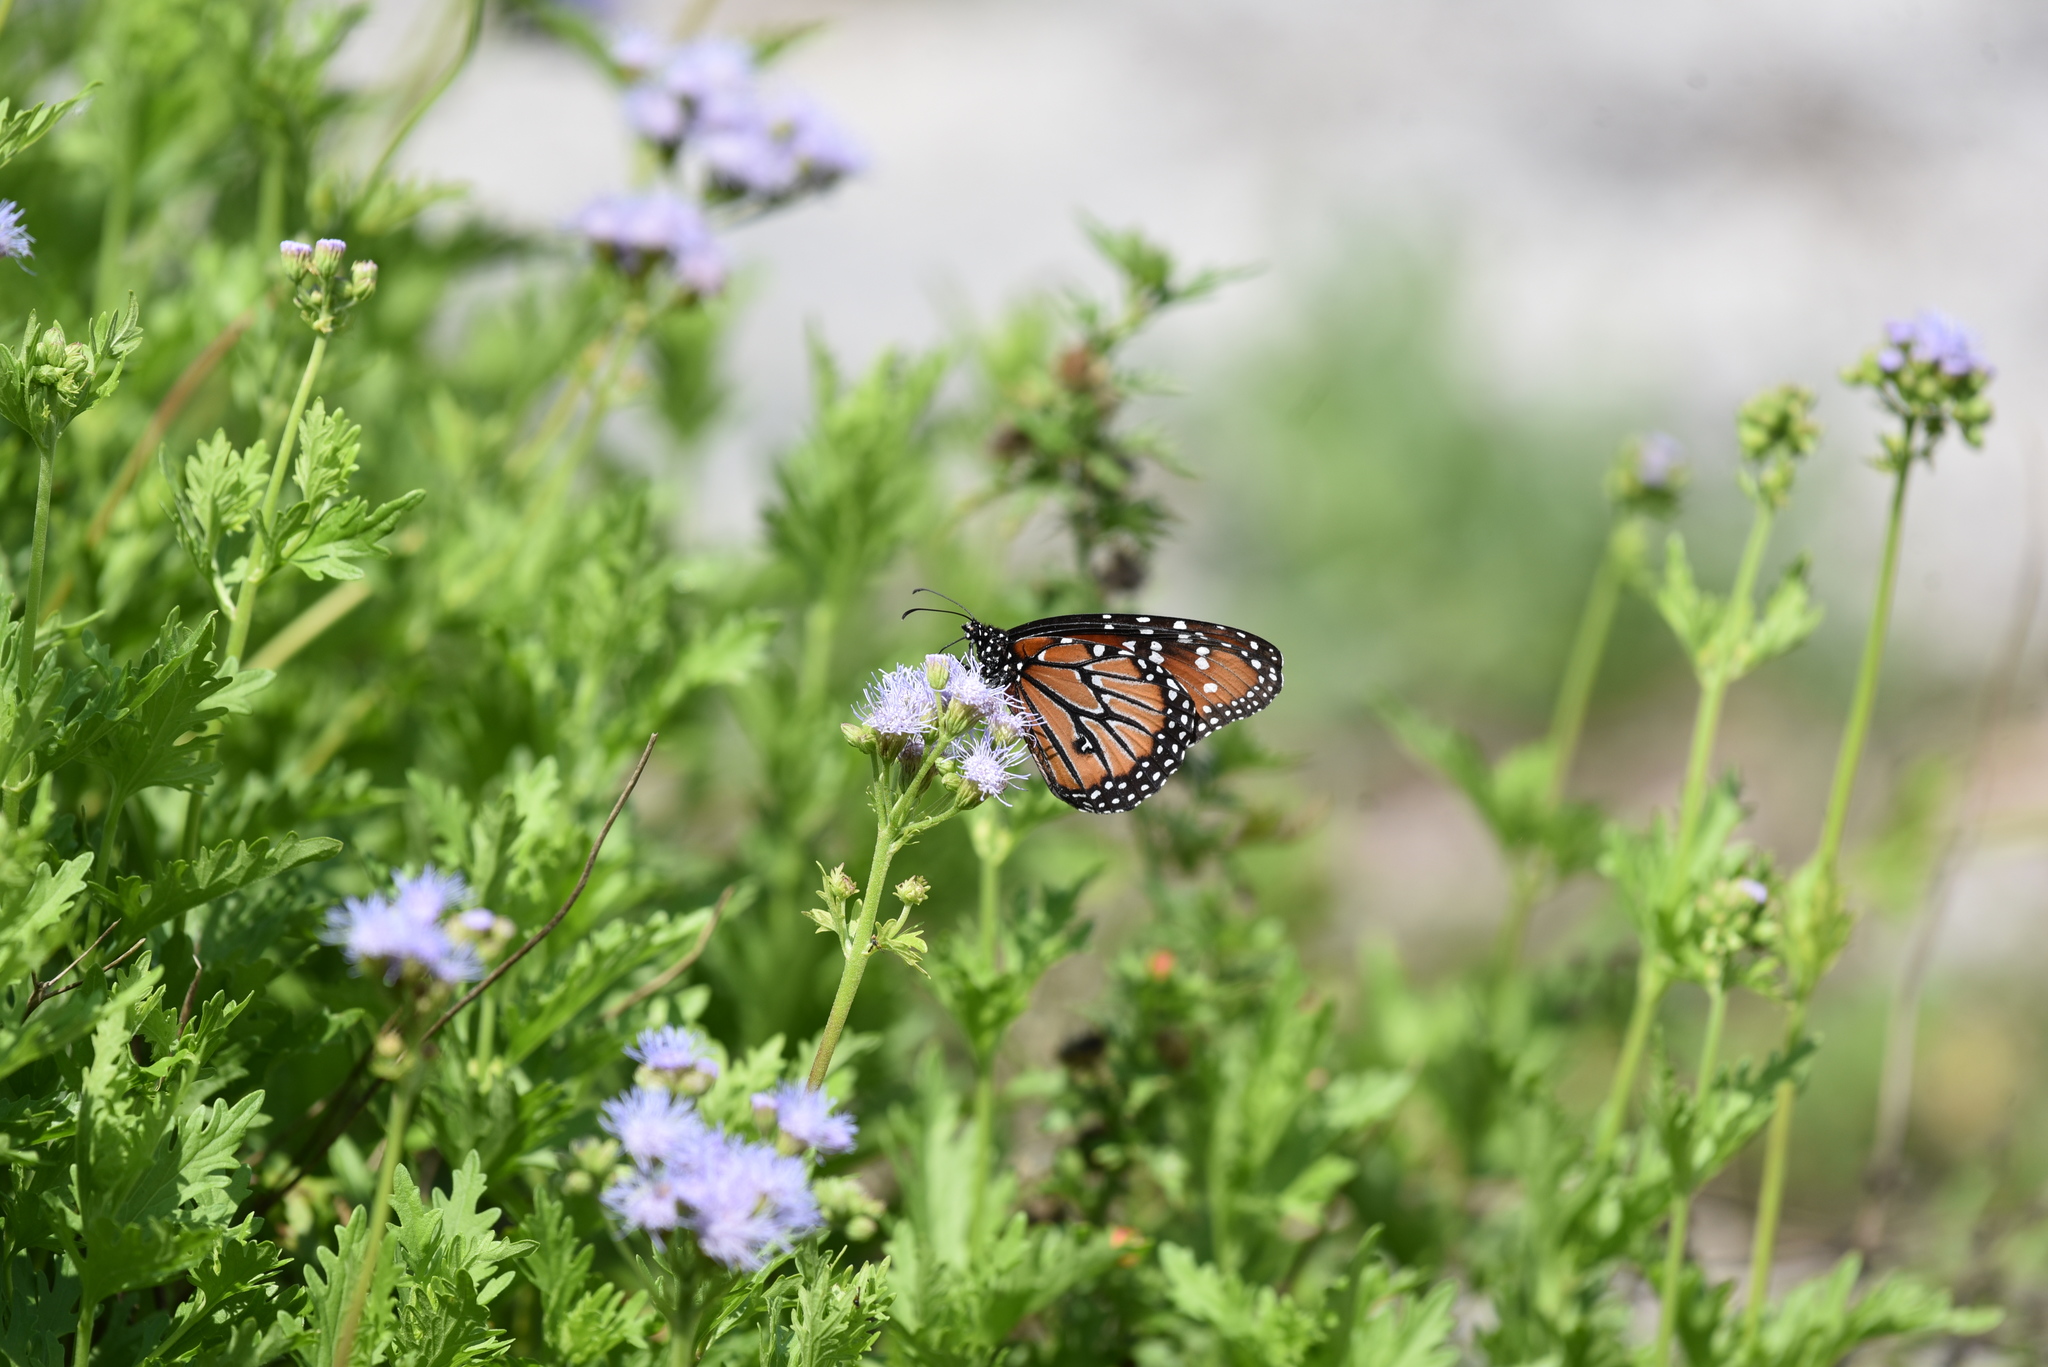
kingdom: Animalia
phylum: Arthropoda
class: Insecta
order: Lepidoptera
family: Nymphalidae
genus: Danaus
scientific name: Danaus gilippus
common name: Queen
